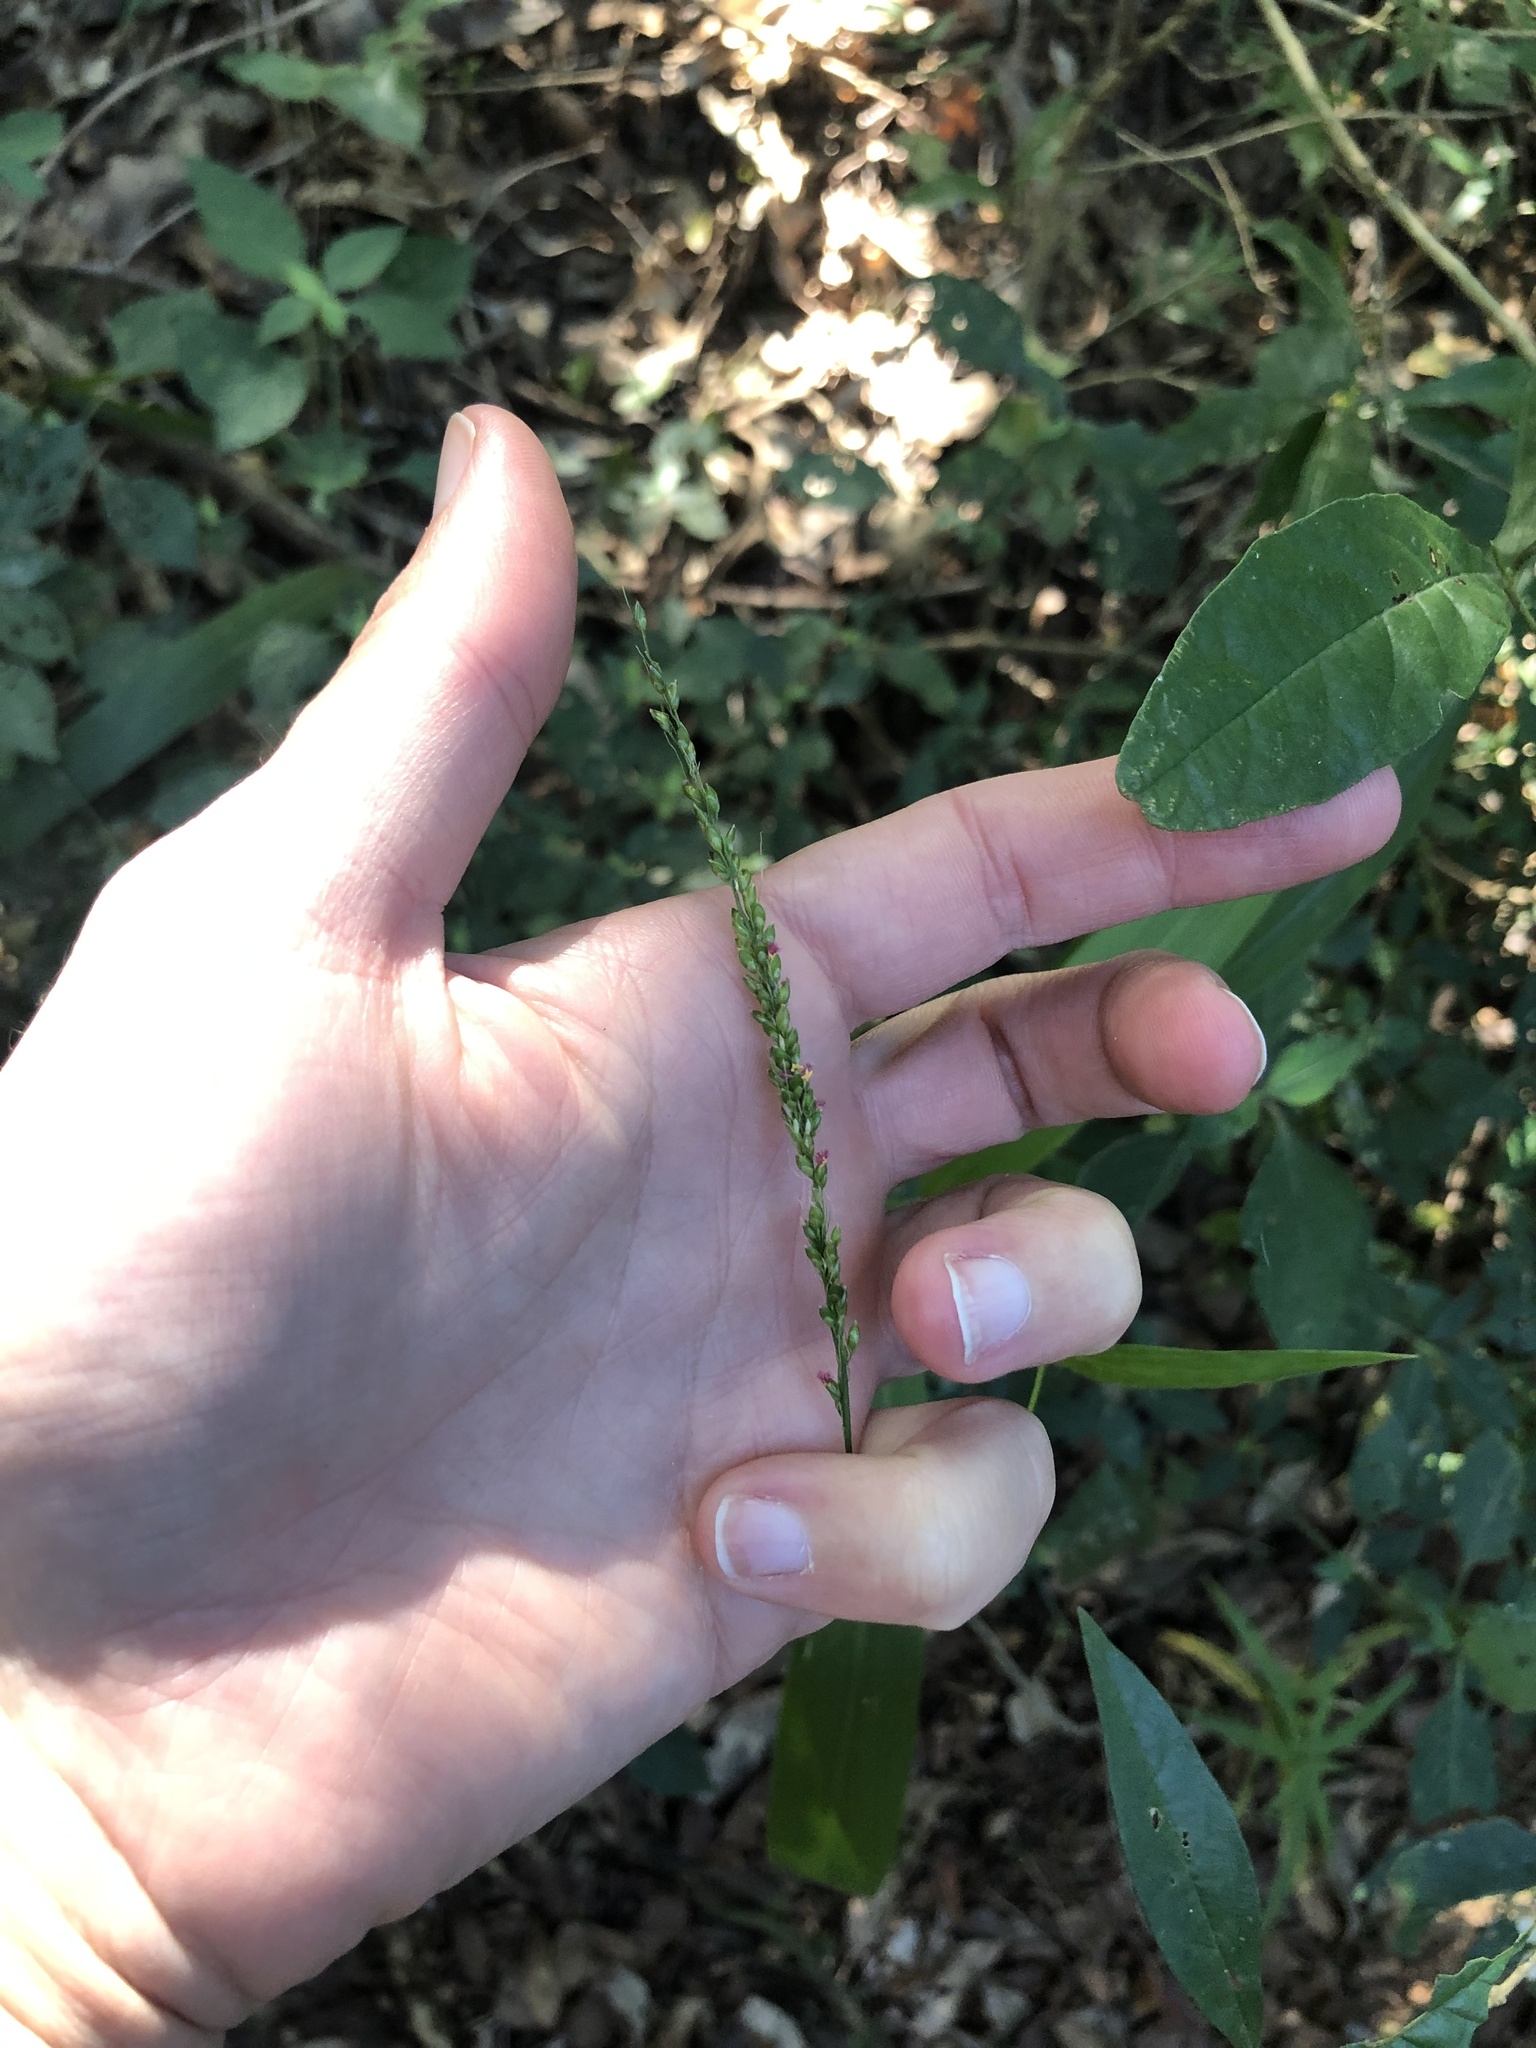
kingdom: Plantae
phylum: Tracheophyta
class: Liliopsida
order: Poales
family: Poaceae
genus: Setaria
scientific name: Setaria megaphylla
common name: Bigleaf bristlegrass
